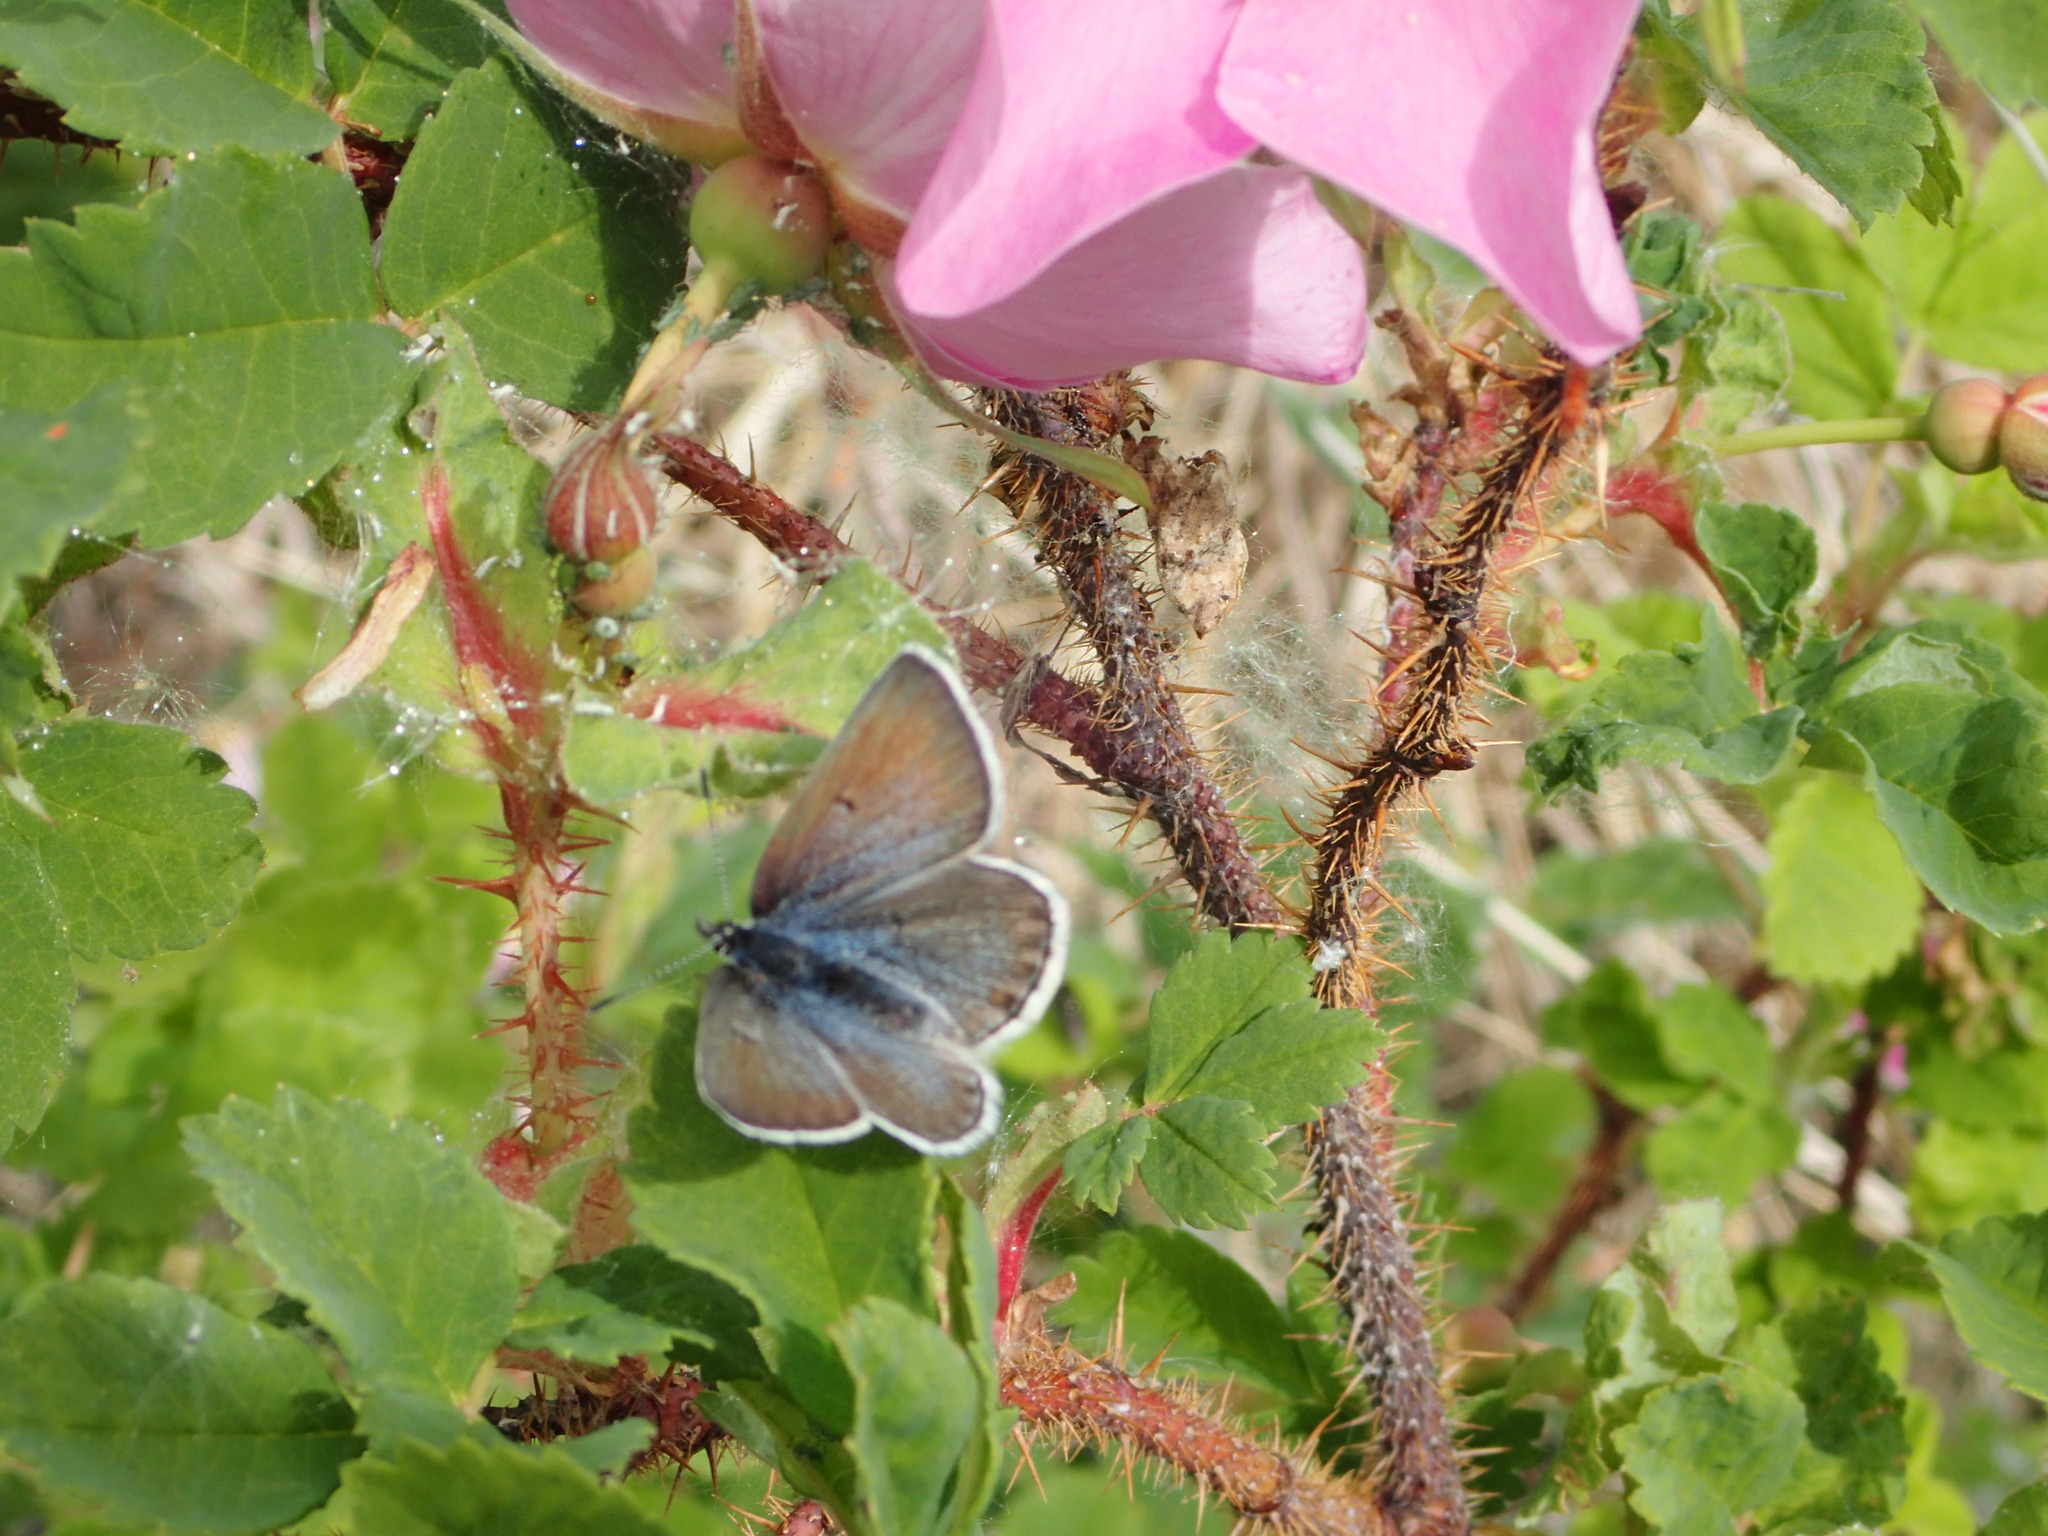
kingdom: Animalia
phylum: Arthropoda
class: Insecta
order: Lepidoptera
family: Lycaenidae
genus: Icaricia
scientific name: Icaricia saepiolus
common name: Greenish blue
